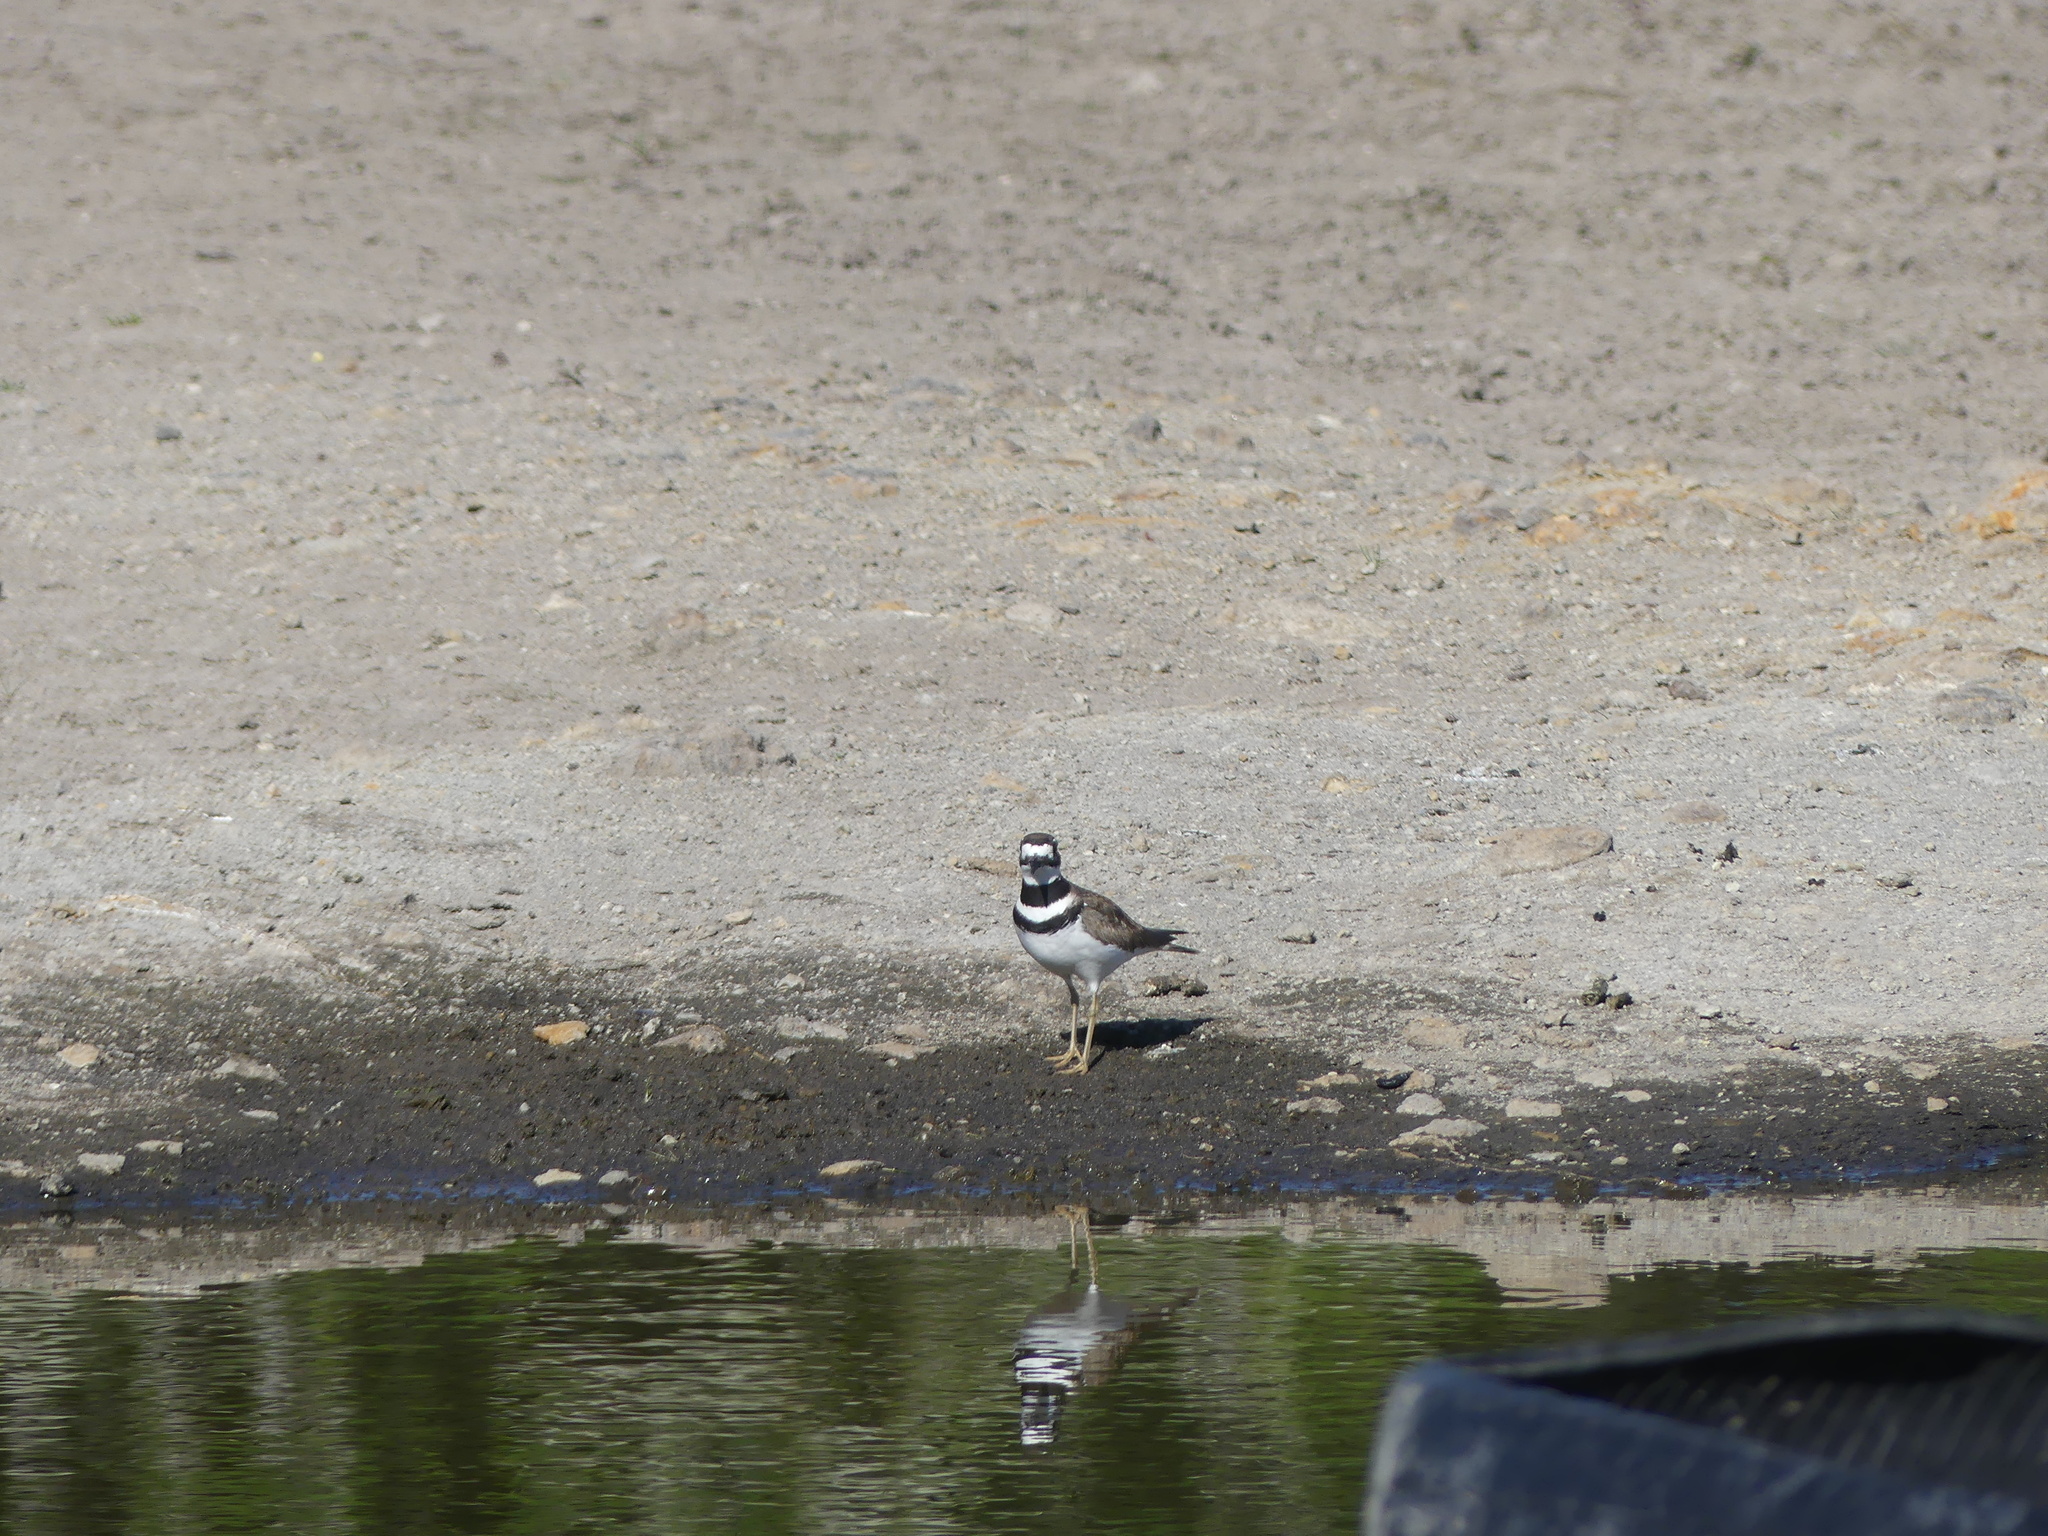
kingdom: Animalia
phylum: Chordata
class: Aves
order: Charadriiformes
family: Charadriidae
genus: Charadrius
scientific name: Charadrius vociferus
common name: Killdeer
